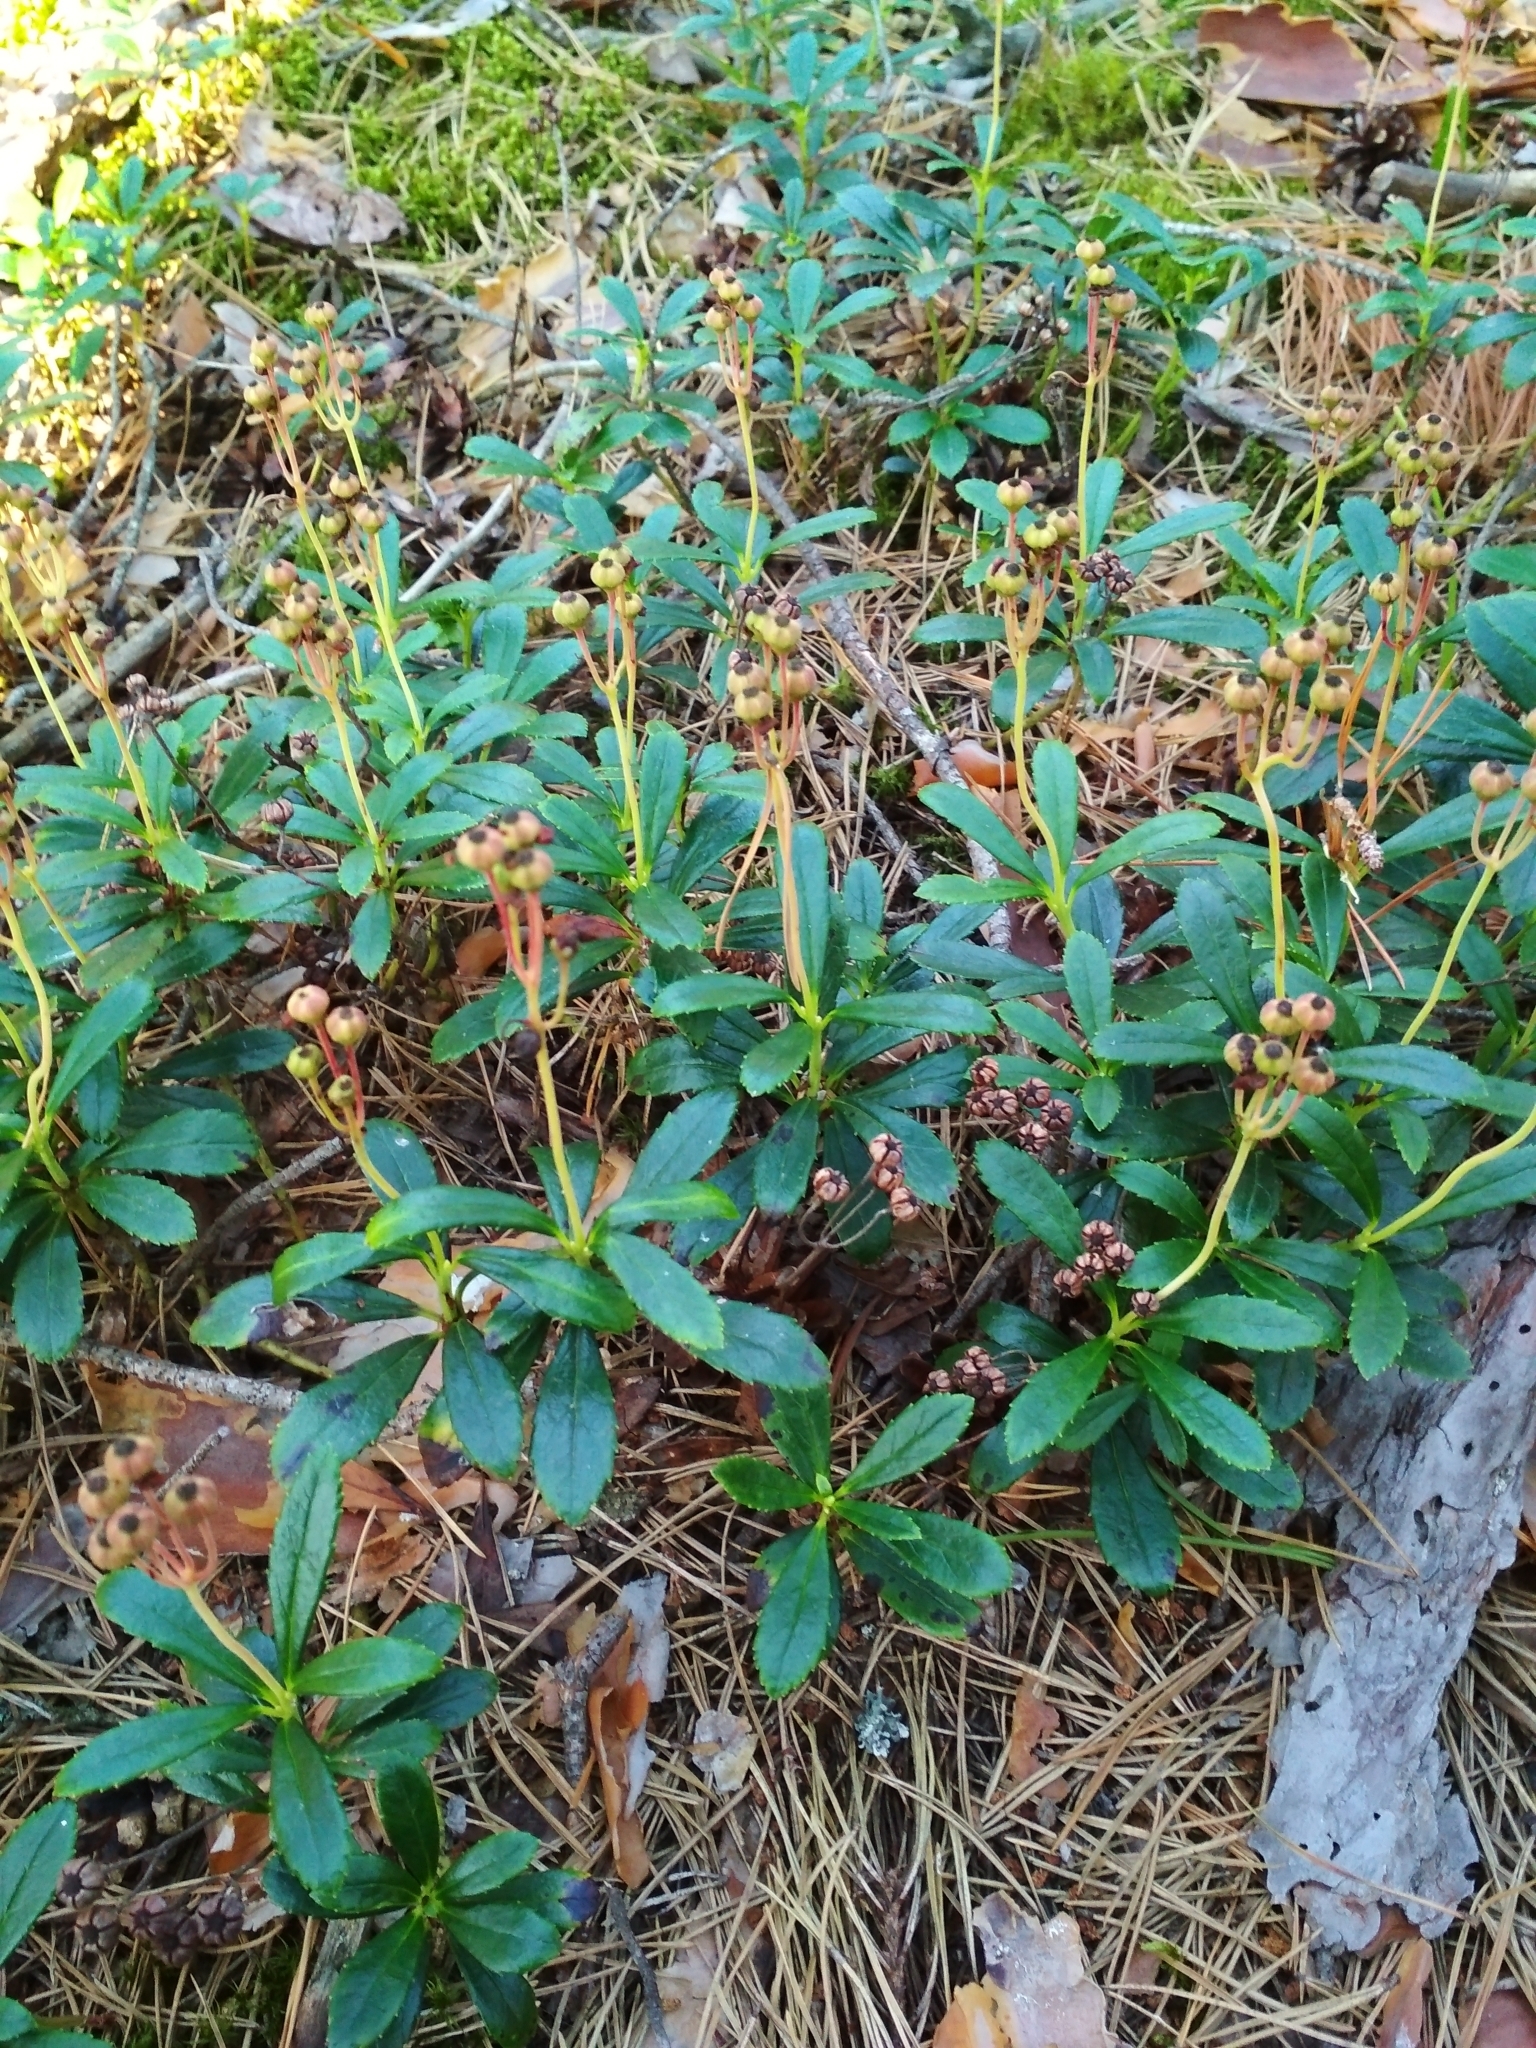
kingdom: Plantae
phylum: Tracheophyta
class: Magnoliopsida
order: Ericales
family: Ericaceae
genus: Chimaphila
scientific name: Chimaphila umbellata
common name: Pipsissewa
